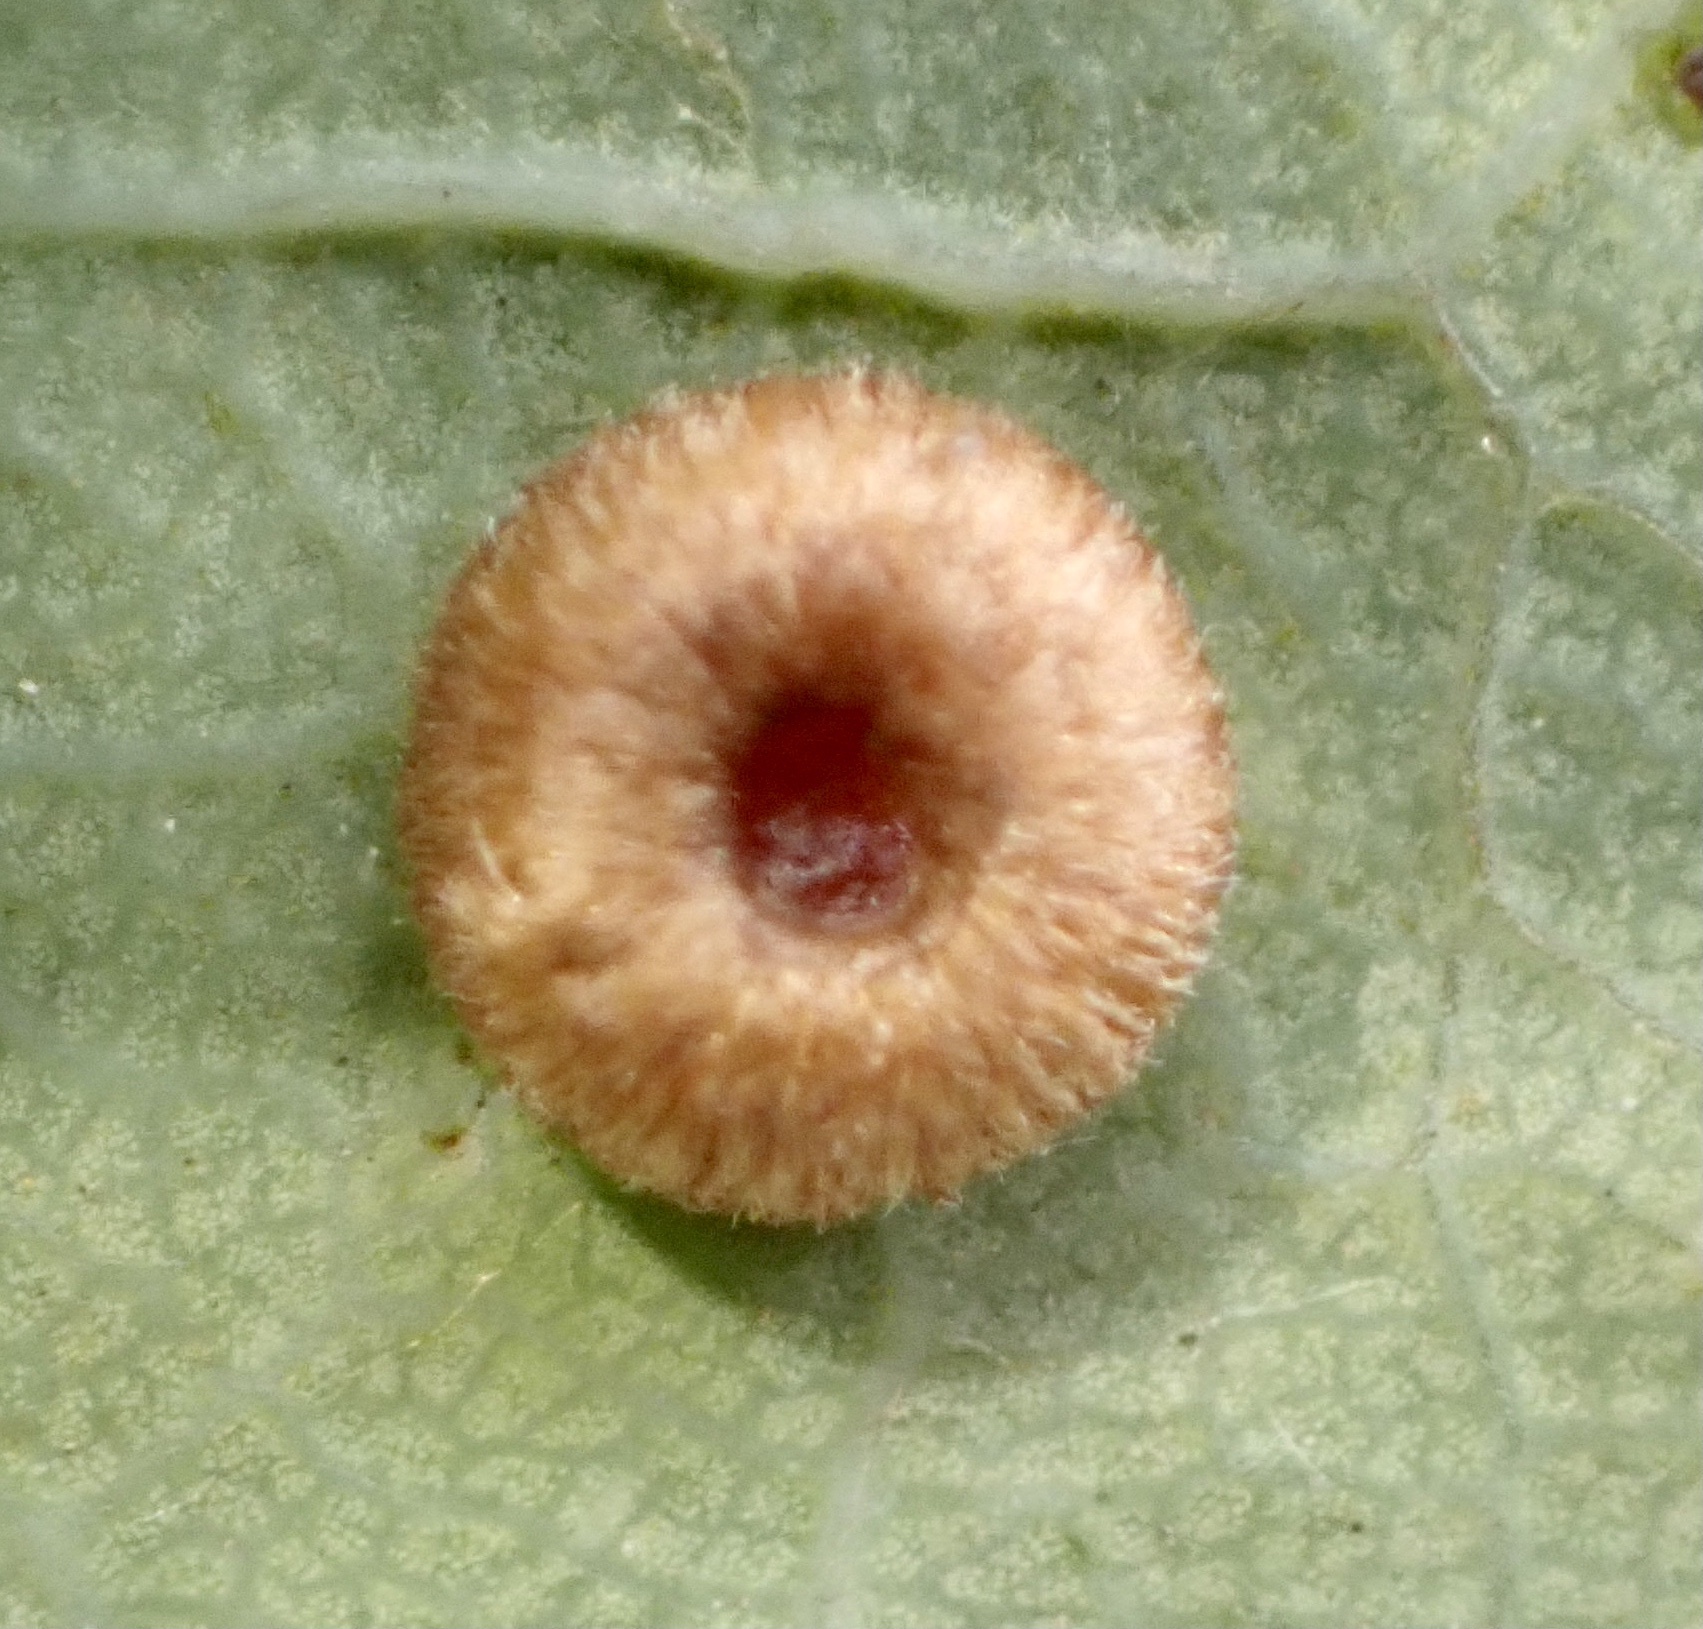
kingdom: Animalia
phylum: Arthropoda
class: Insecta
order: Hymenoptera
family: Cynipidae
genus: Neuroterus
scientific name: Neuroterus numismalis
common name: Silk-button spangle gall
